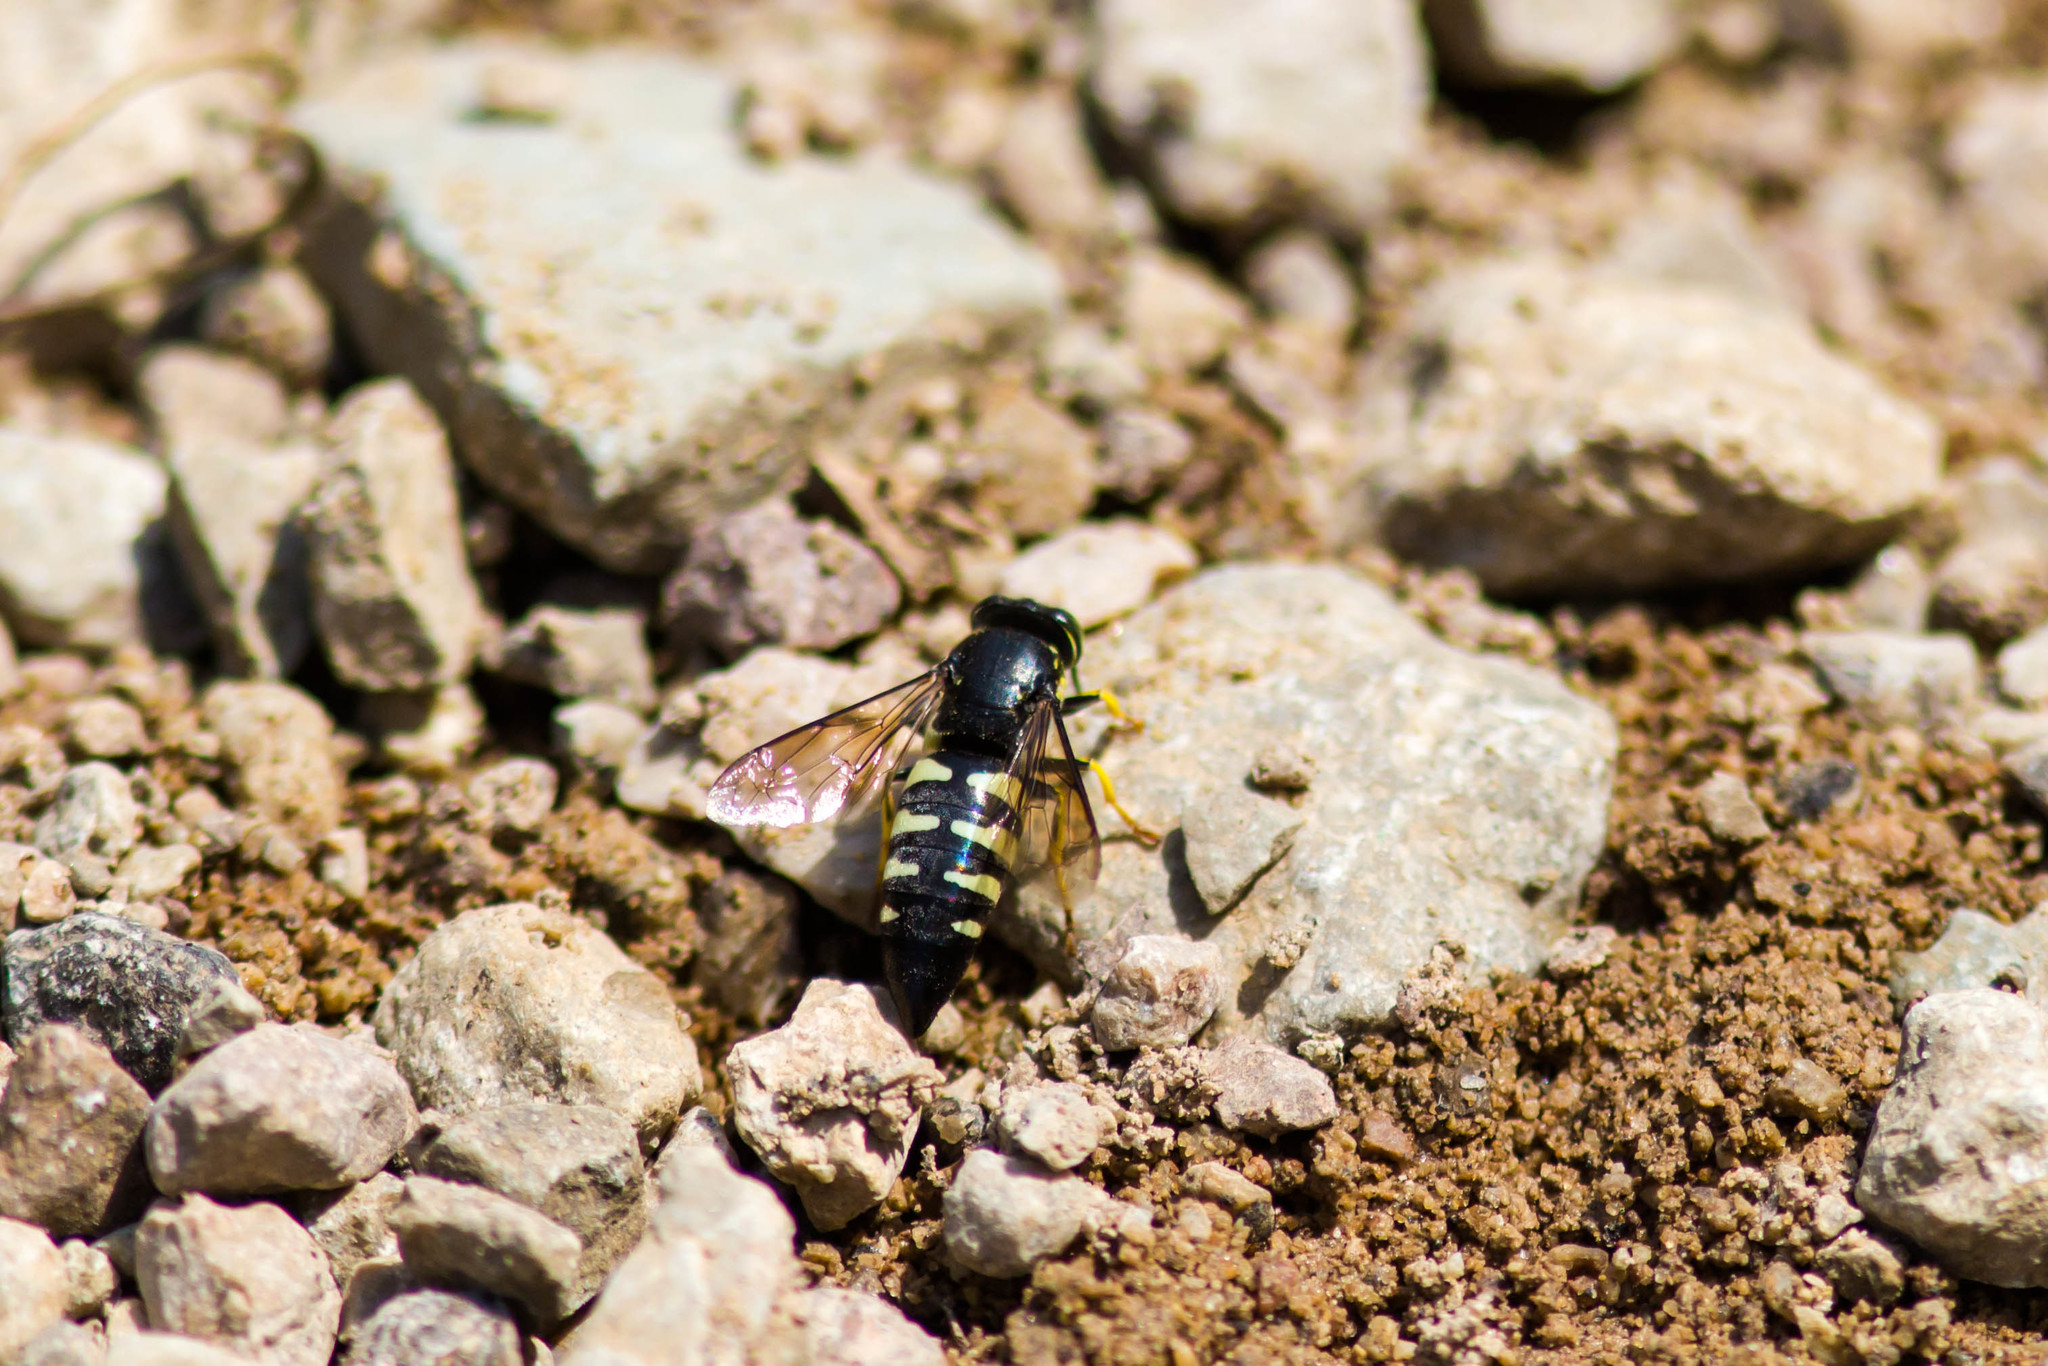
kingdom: Animalia
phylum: Arthropoda
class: Insecta
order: Hymenoptera
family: Crabronidae
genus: Bicyrtes
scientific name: Bicyrtes quadrifasciatus
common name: Four-banded stink bug hunter wasp
